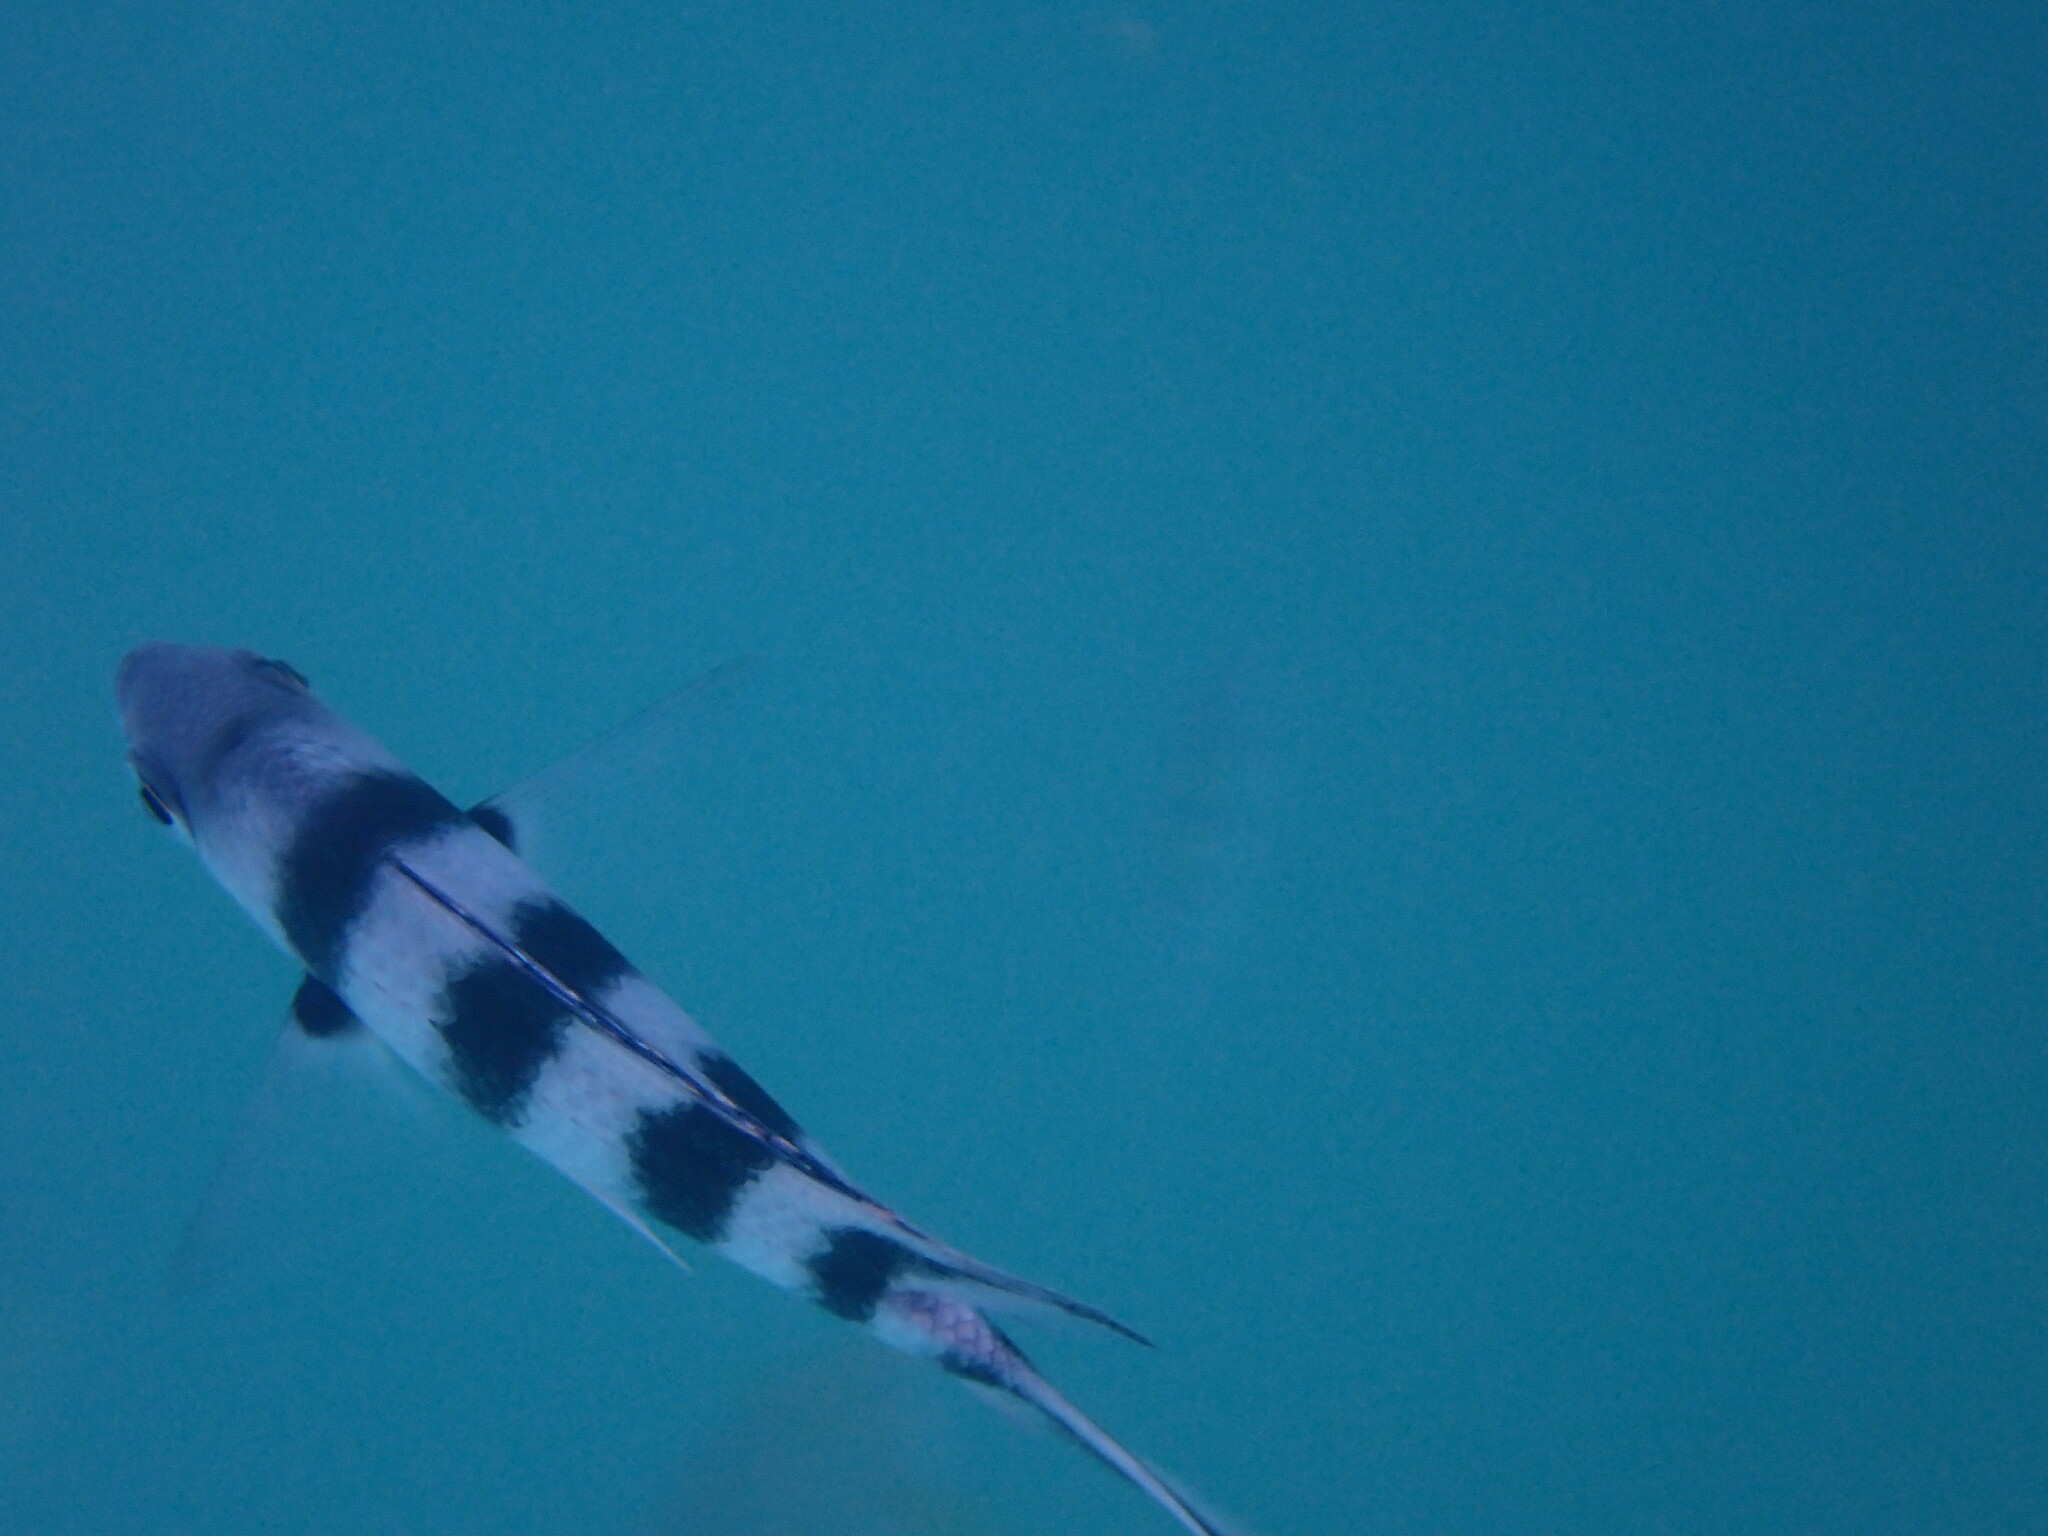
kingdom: Animalia
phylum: Chordata
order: Perciformes
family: Pomacentridae
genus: Abudefduf
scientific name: Abudefduf sexfasciatus
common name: Scissortail sergeant
